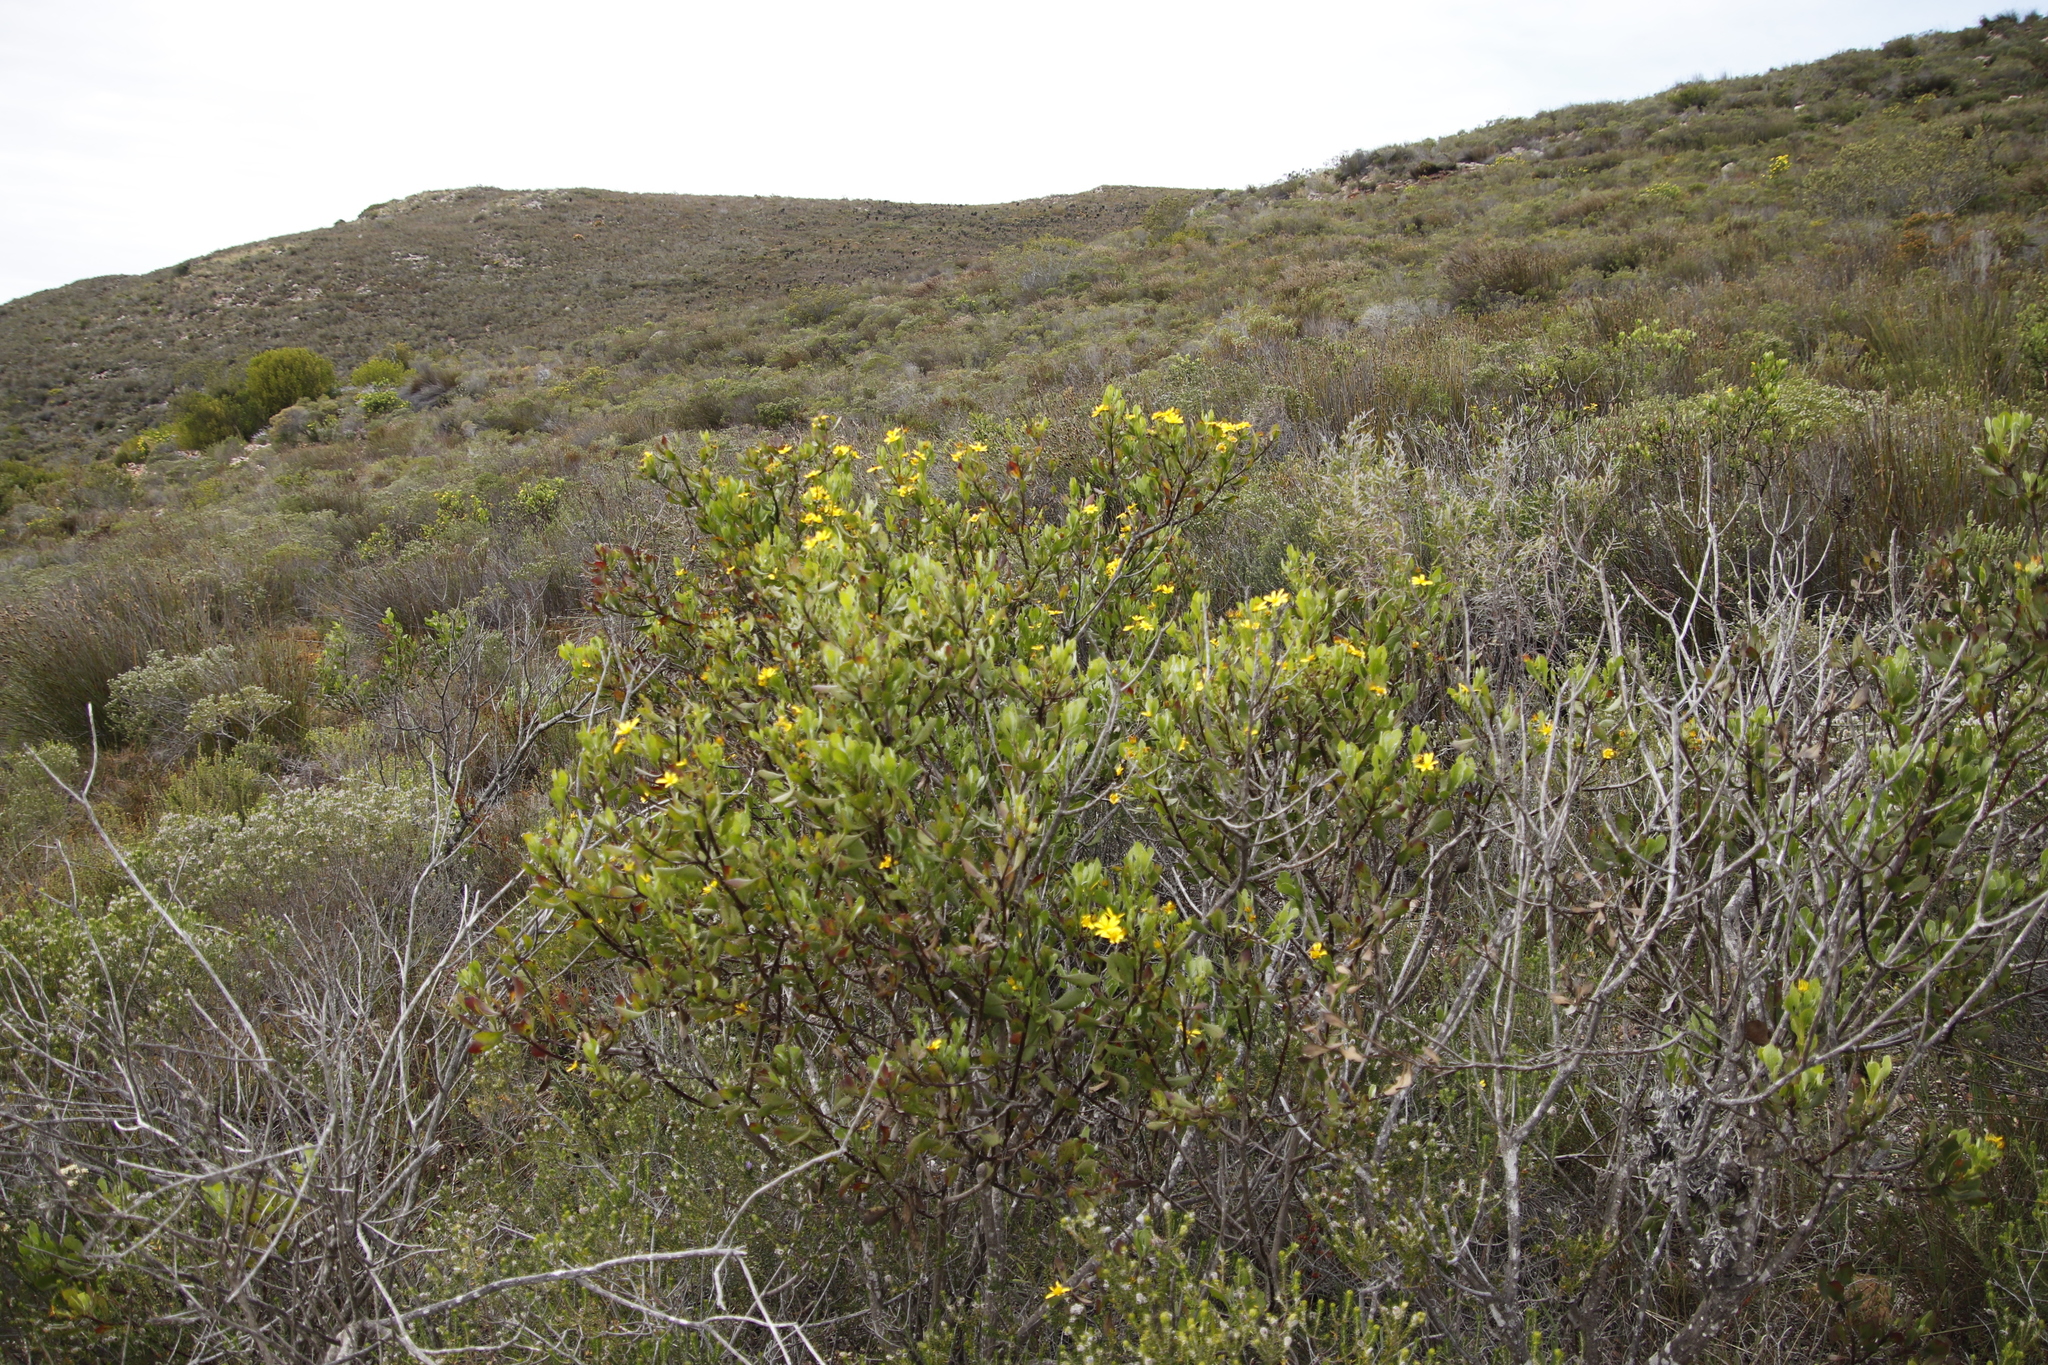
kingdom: Plantae
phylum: Tracheophyta
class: Magnoliopsida
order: Asterales
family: Asteraceae
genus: Osteospermum
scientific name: Osteospermum moniliferum
